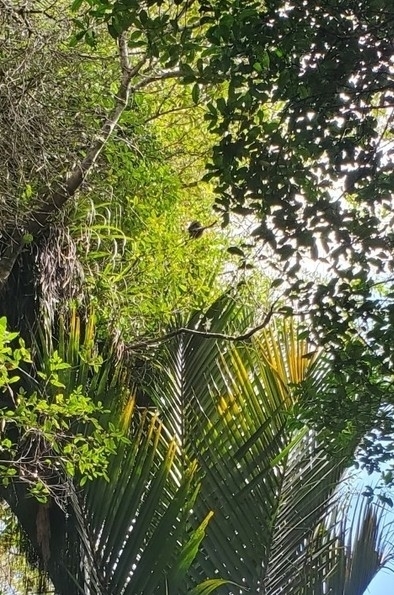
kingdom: Animalia
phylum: Chordata
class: Aves
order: Strigiformes
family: Strigidae
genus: Ninox
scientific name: Ninox novaeseelandiae
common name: Morepork
